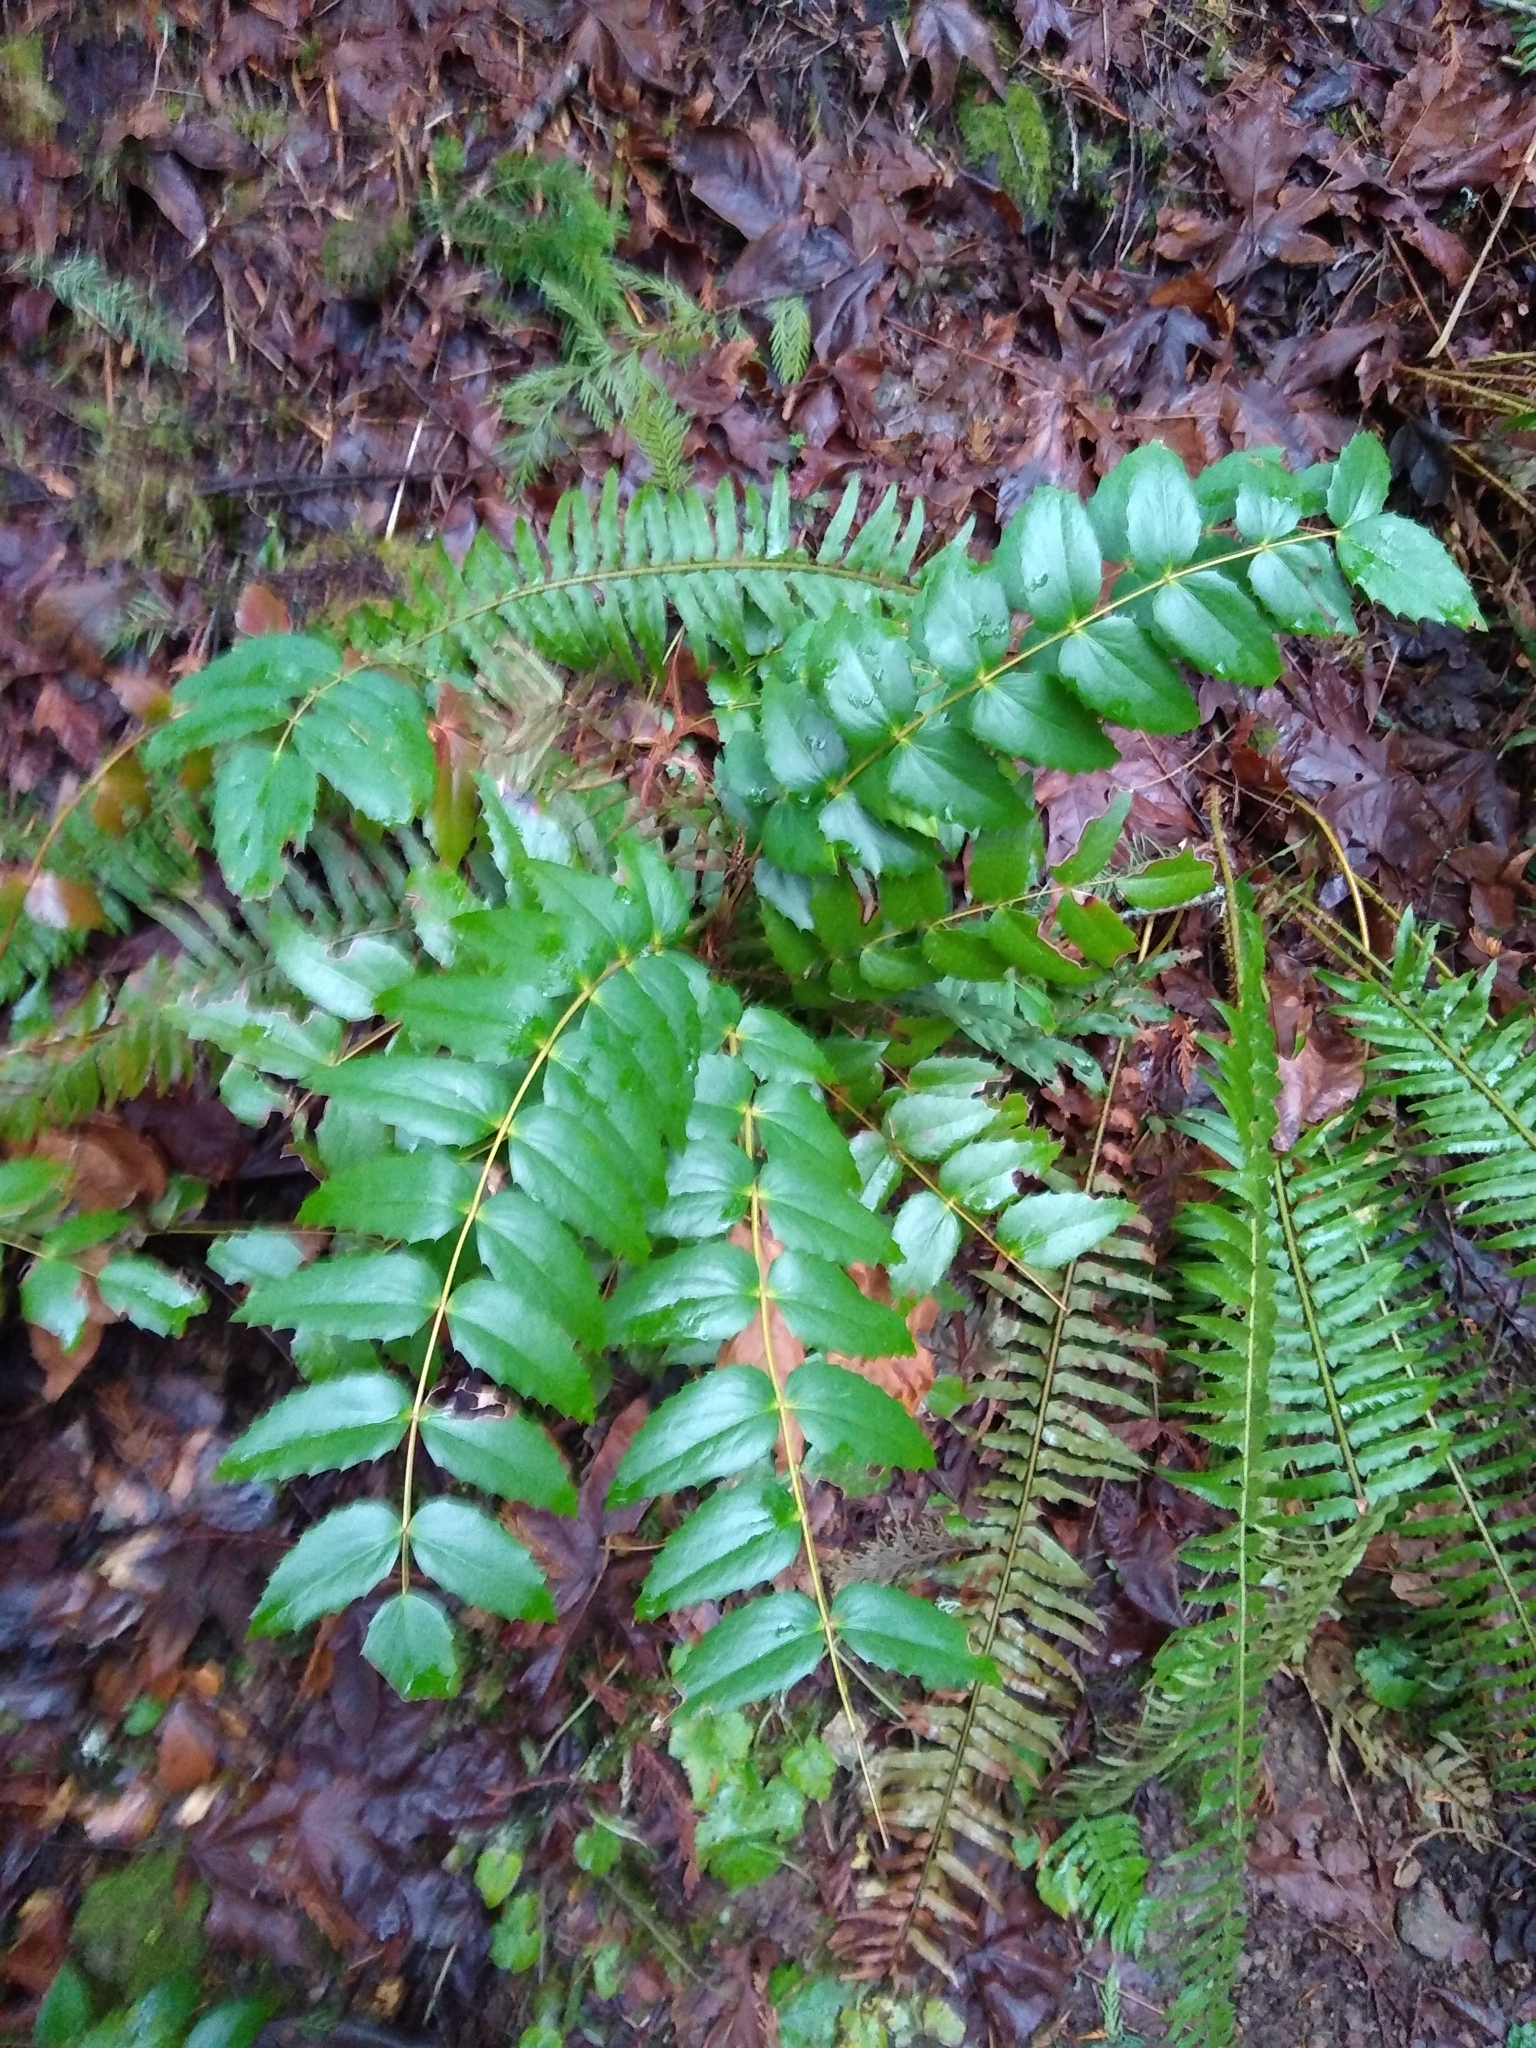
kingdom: Plantae
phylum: Tracheophyta
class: Magnoliopsida
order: Ranunculales
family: Berberidaceae
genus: Mahonia
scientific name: Mahonia nervosa
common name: Cascade oregon-grape
